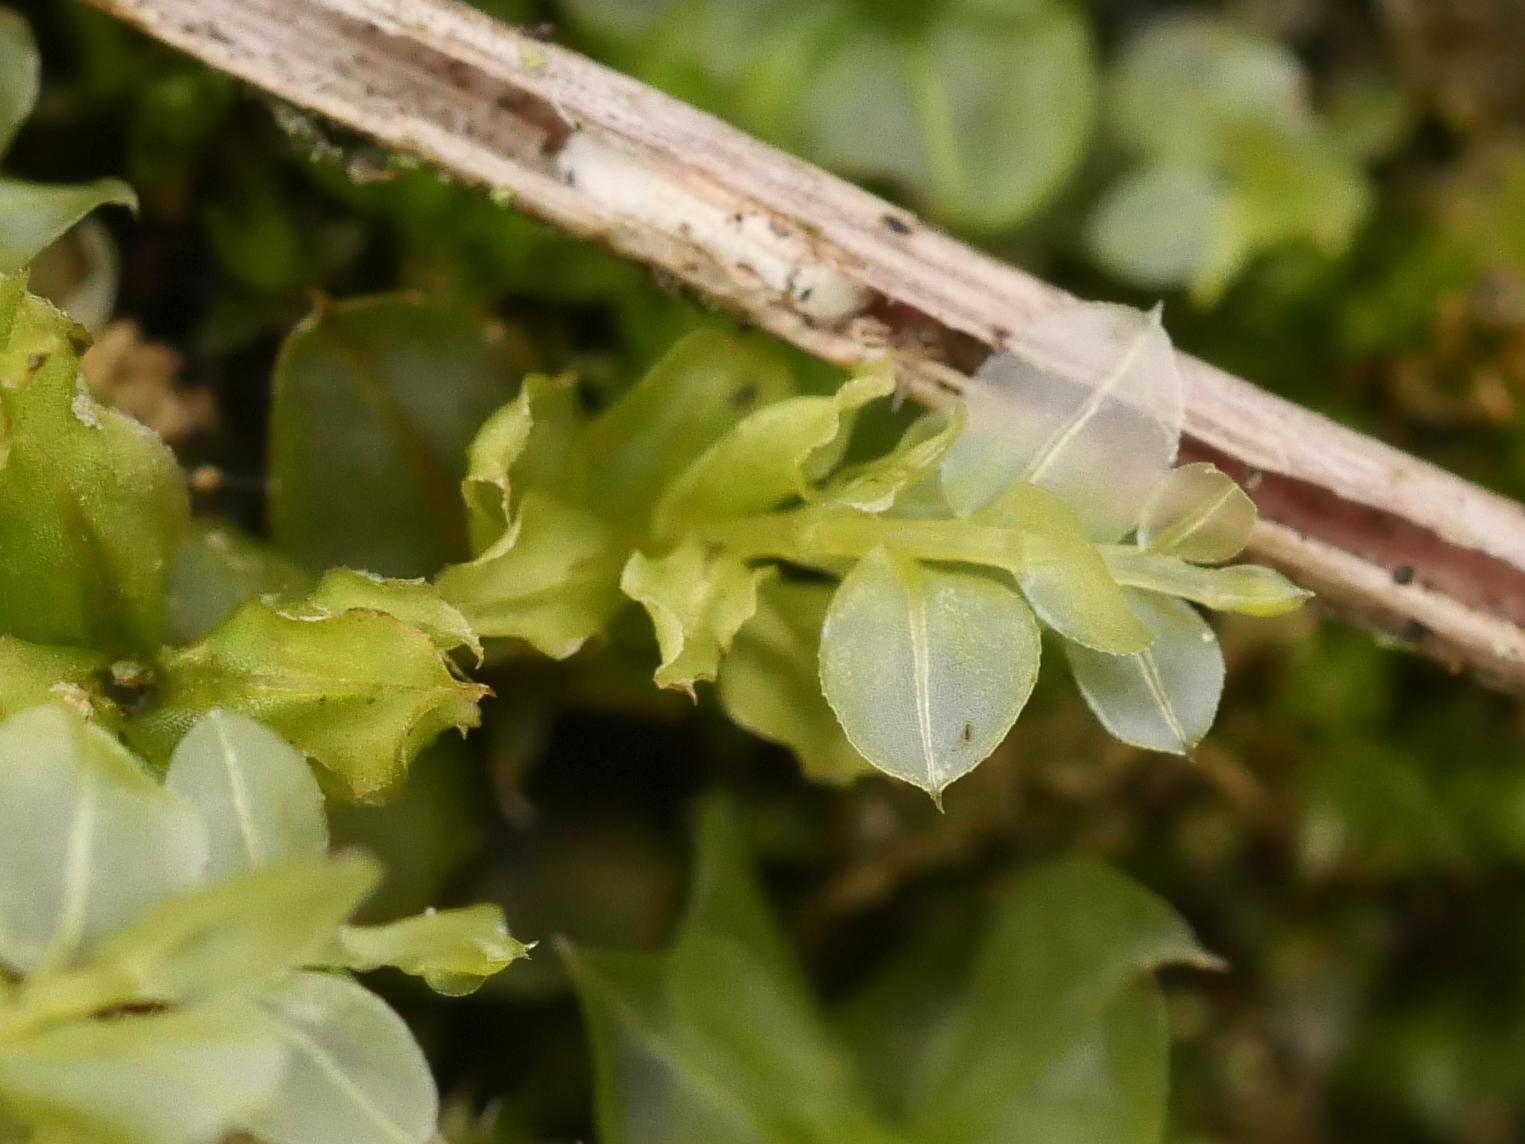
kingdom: Plantae
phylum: Bryophyta
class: Bryopsida
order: Bryales
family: Mniaceae
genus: Plagiomnium
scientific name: Plagiomnium cuspidatum
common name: Woodsy leafy moss
